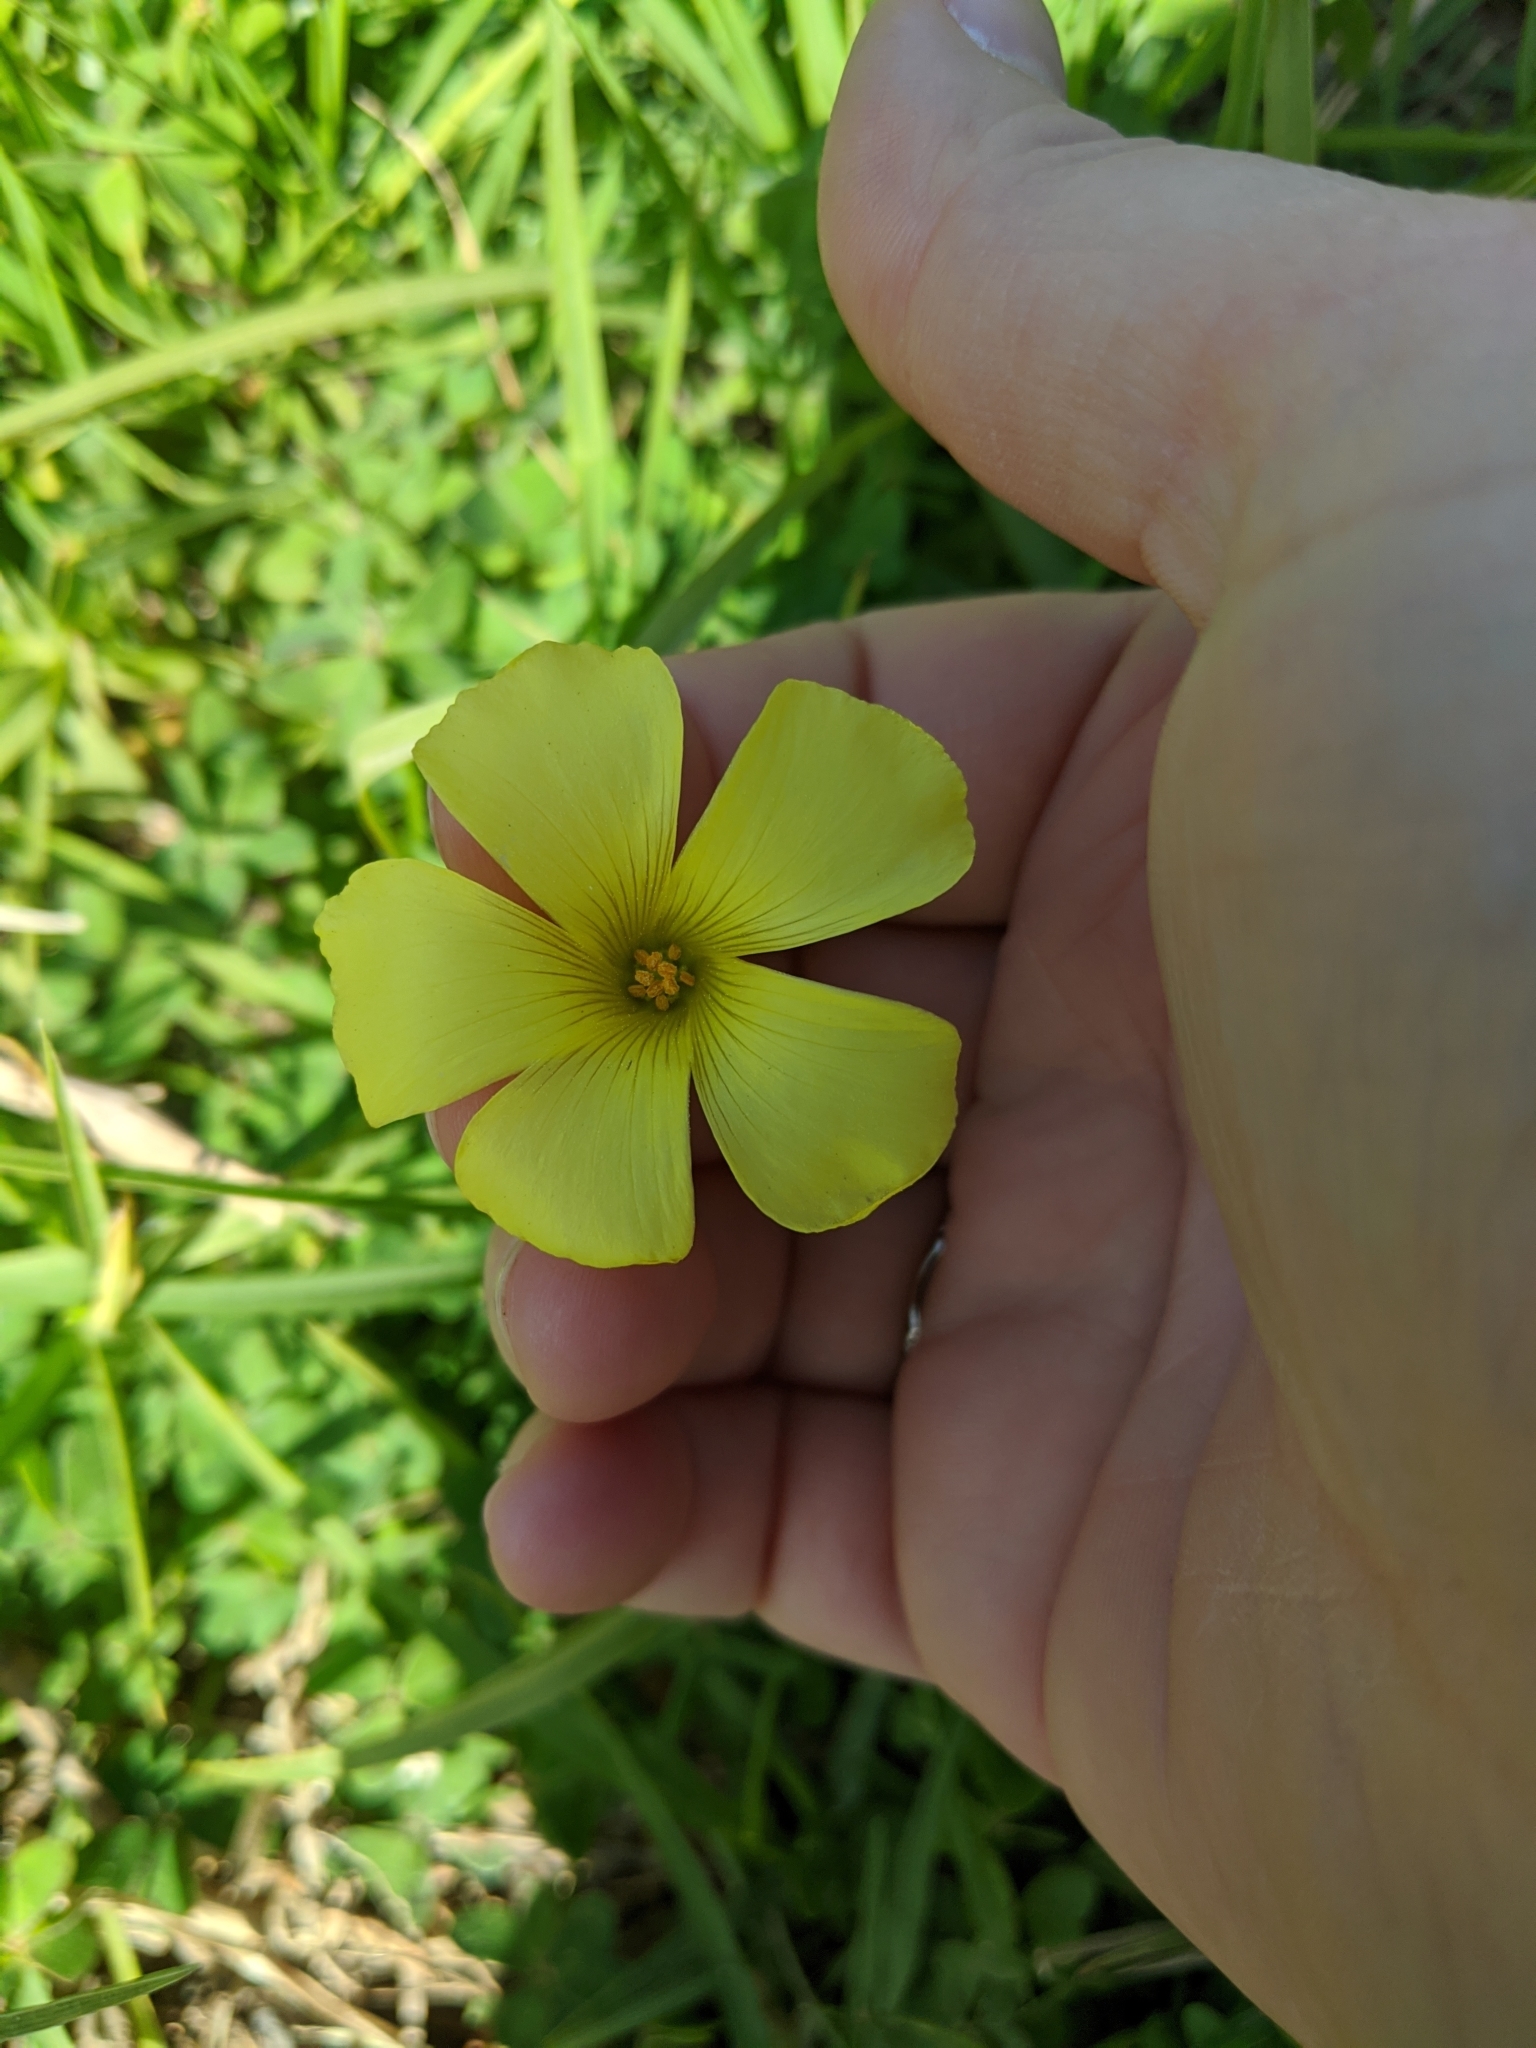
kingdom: Plantae
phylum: Tracheophyta
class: Magnoliopsida
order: Oxalidales
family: Oxalidaceae
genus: Oxalis
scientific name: Oxalis pes-caprae
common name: Bermuda-buttercup
